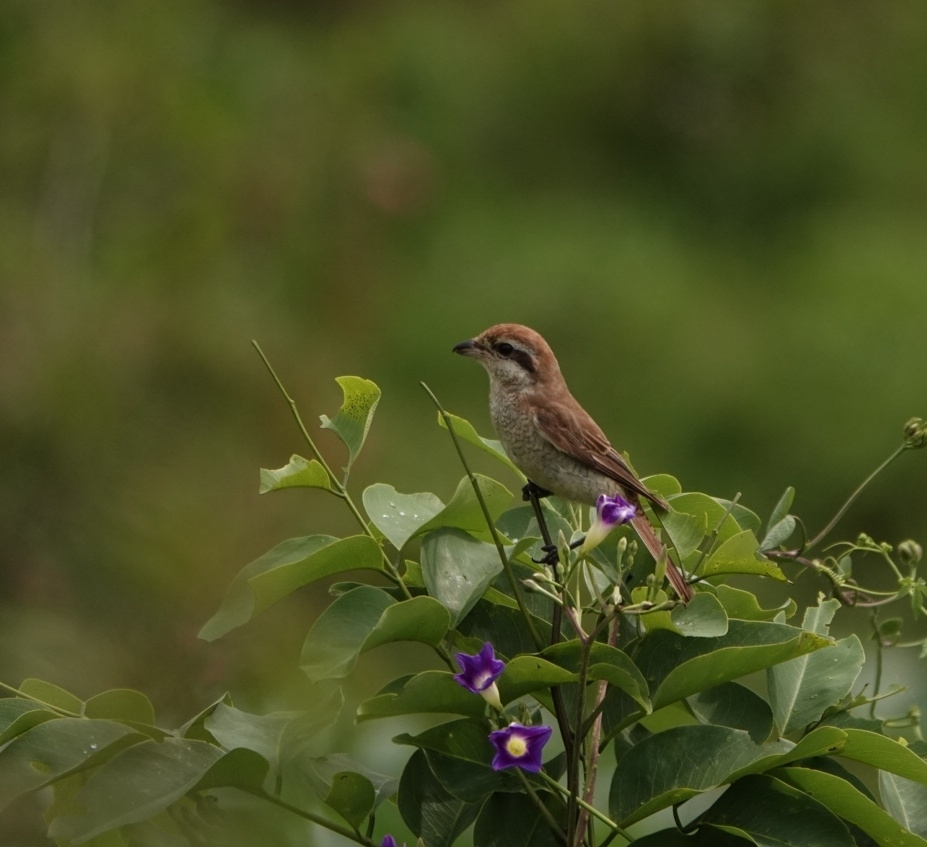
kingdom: Animalia
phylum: Chordata
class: Aves
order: Passeriformes
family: Laniidae
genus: Lanius
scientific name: Lanius cristatus
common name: Brown shrike
